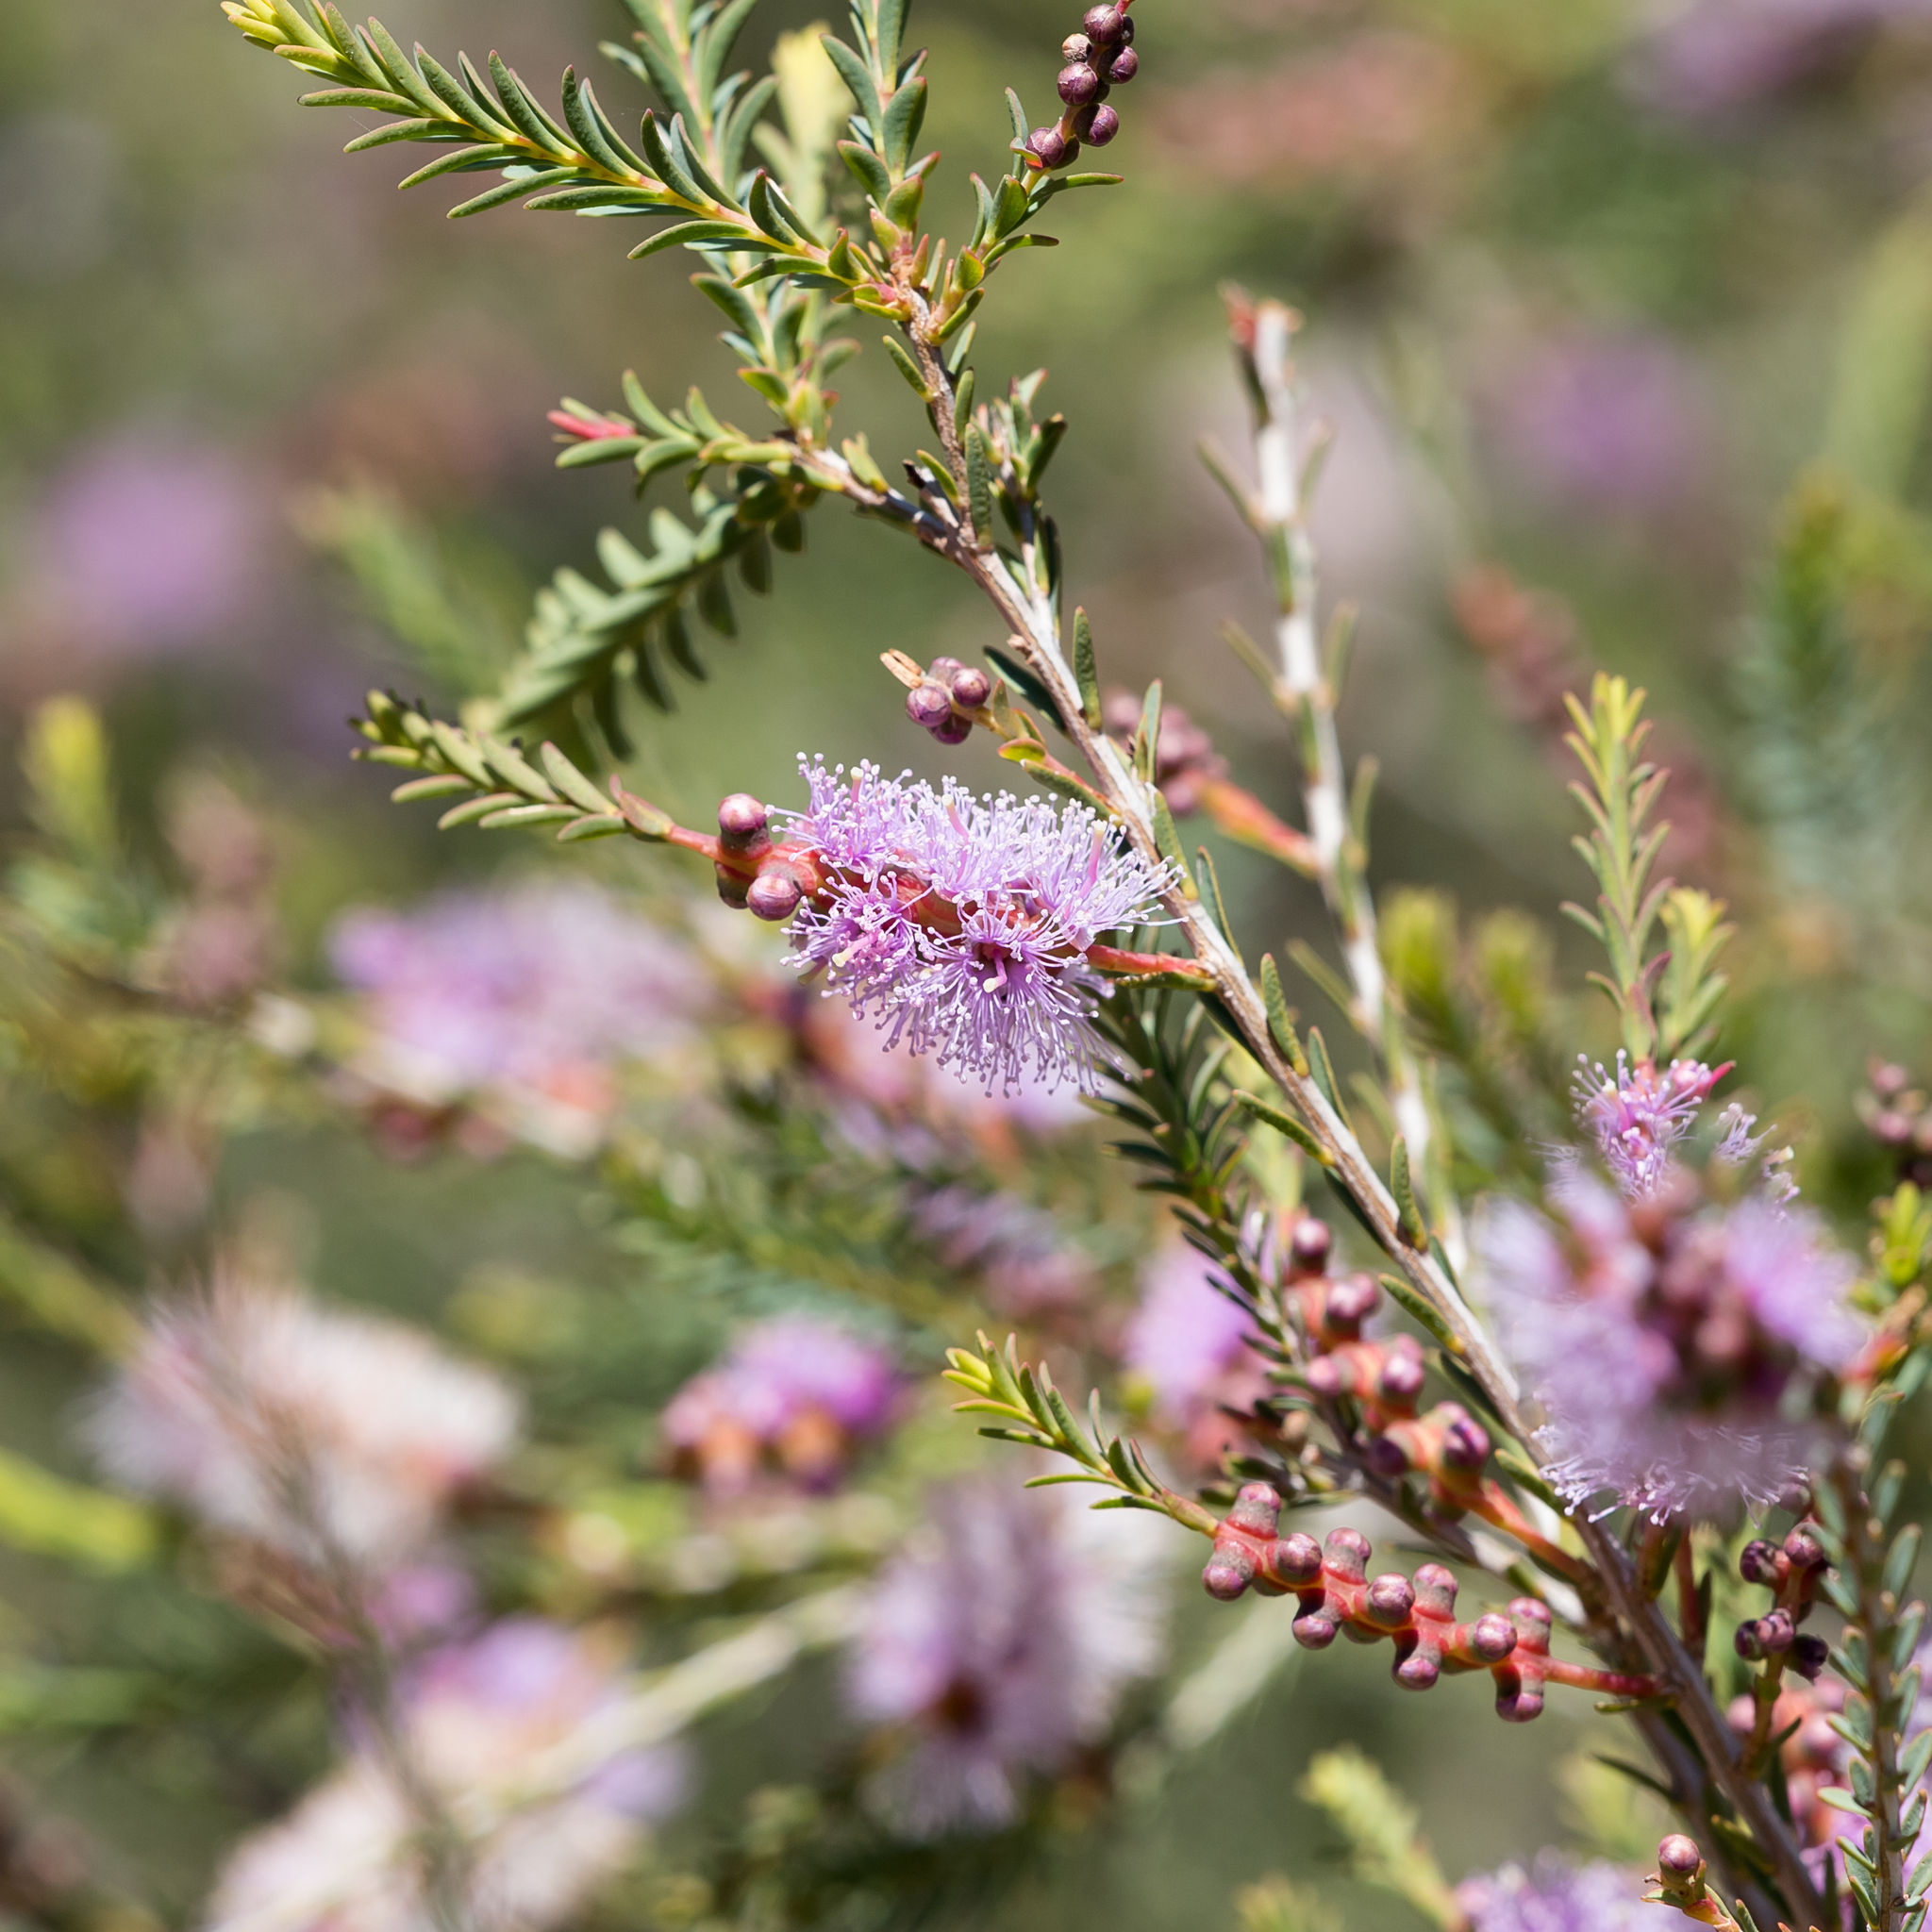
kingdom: Plantae
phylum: Tracheophyta
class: Magnoliopsida
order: Myrtales
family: Myrtaceae
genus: Melaleuca
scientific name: Melaleuca decussata
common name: Cross-leaf honey myrtle
